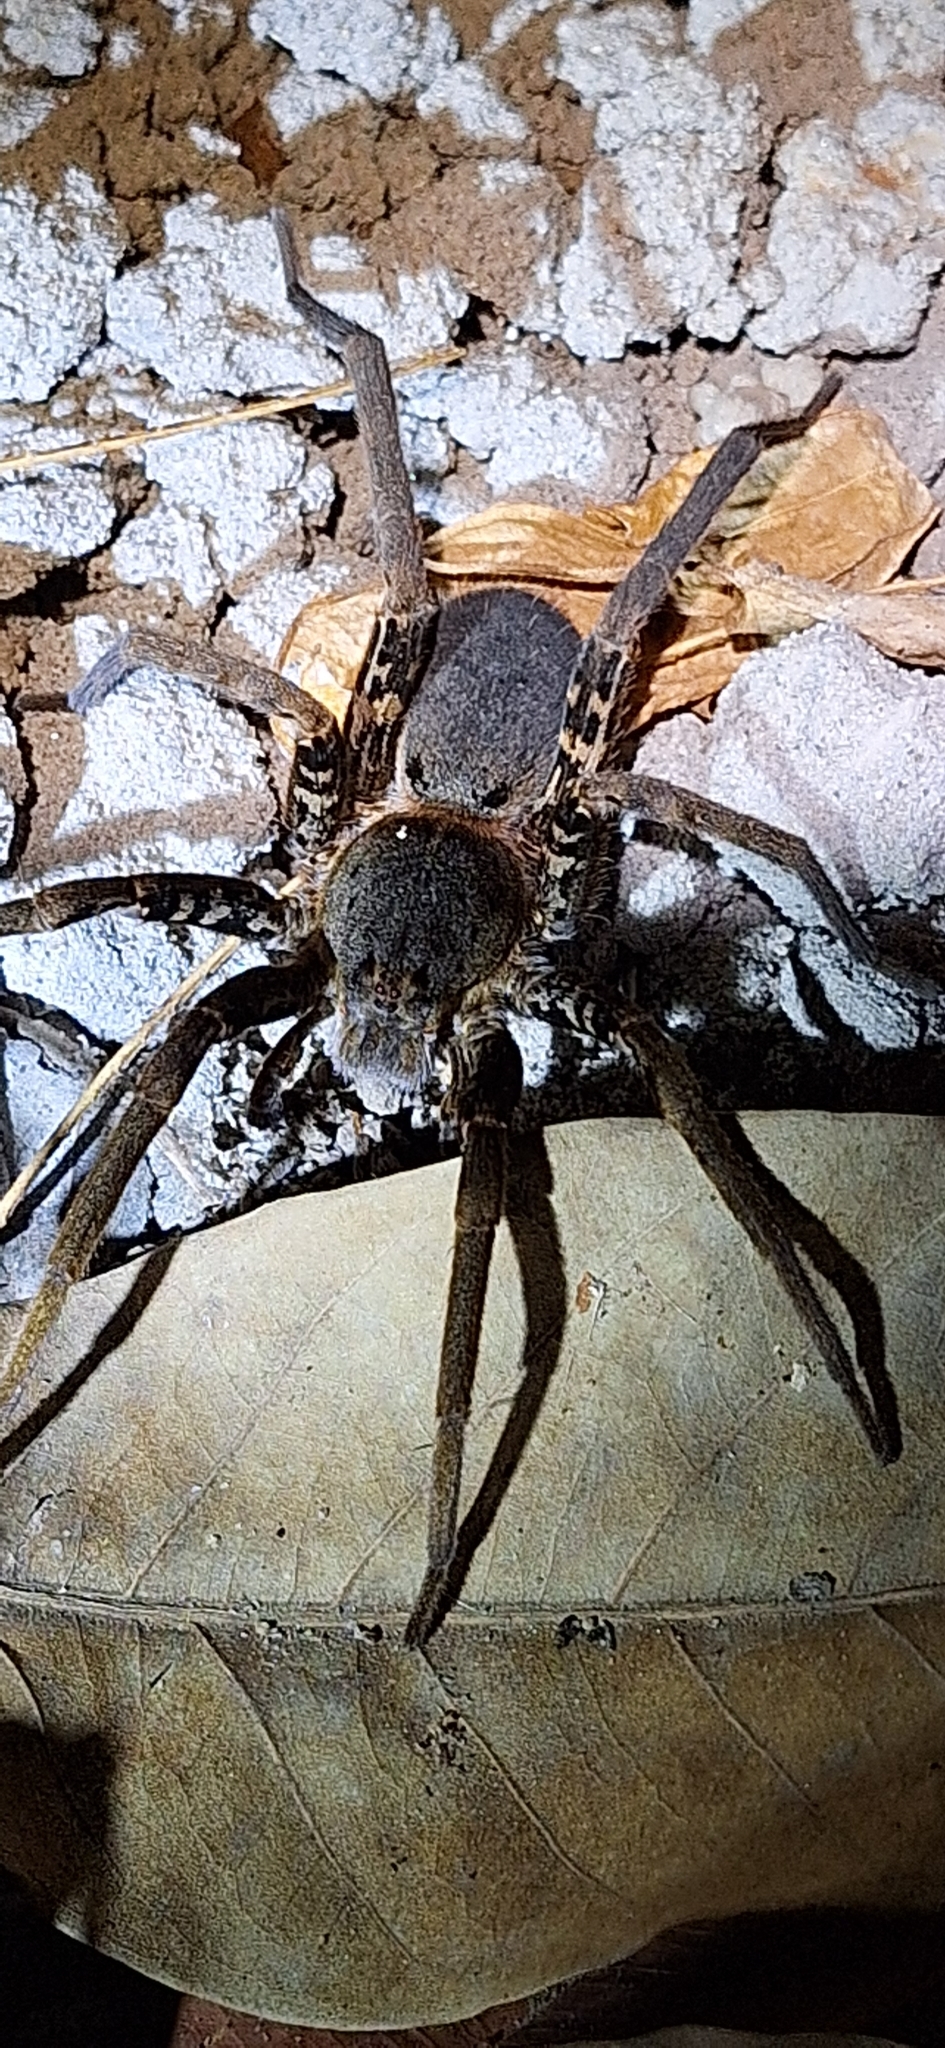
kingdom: Animalia
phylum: Arthropoda
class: Arachnida
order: Araneae
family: Ctenidae
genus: Ancylometes
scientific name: Ancylometes bogotensis
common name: Wandering spiders
